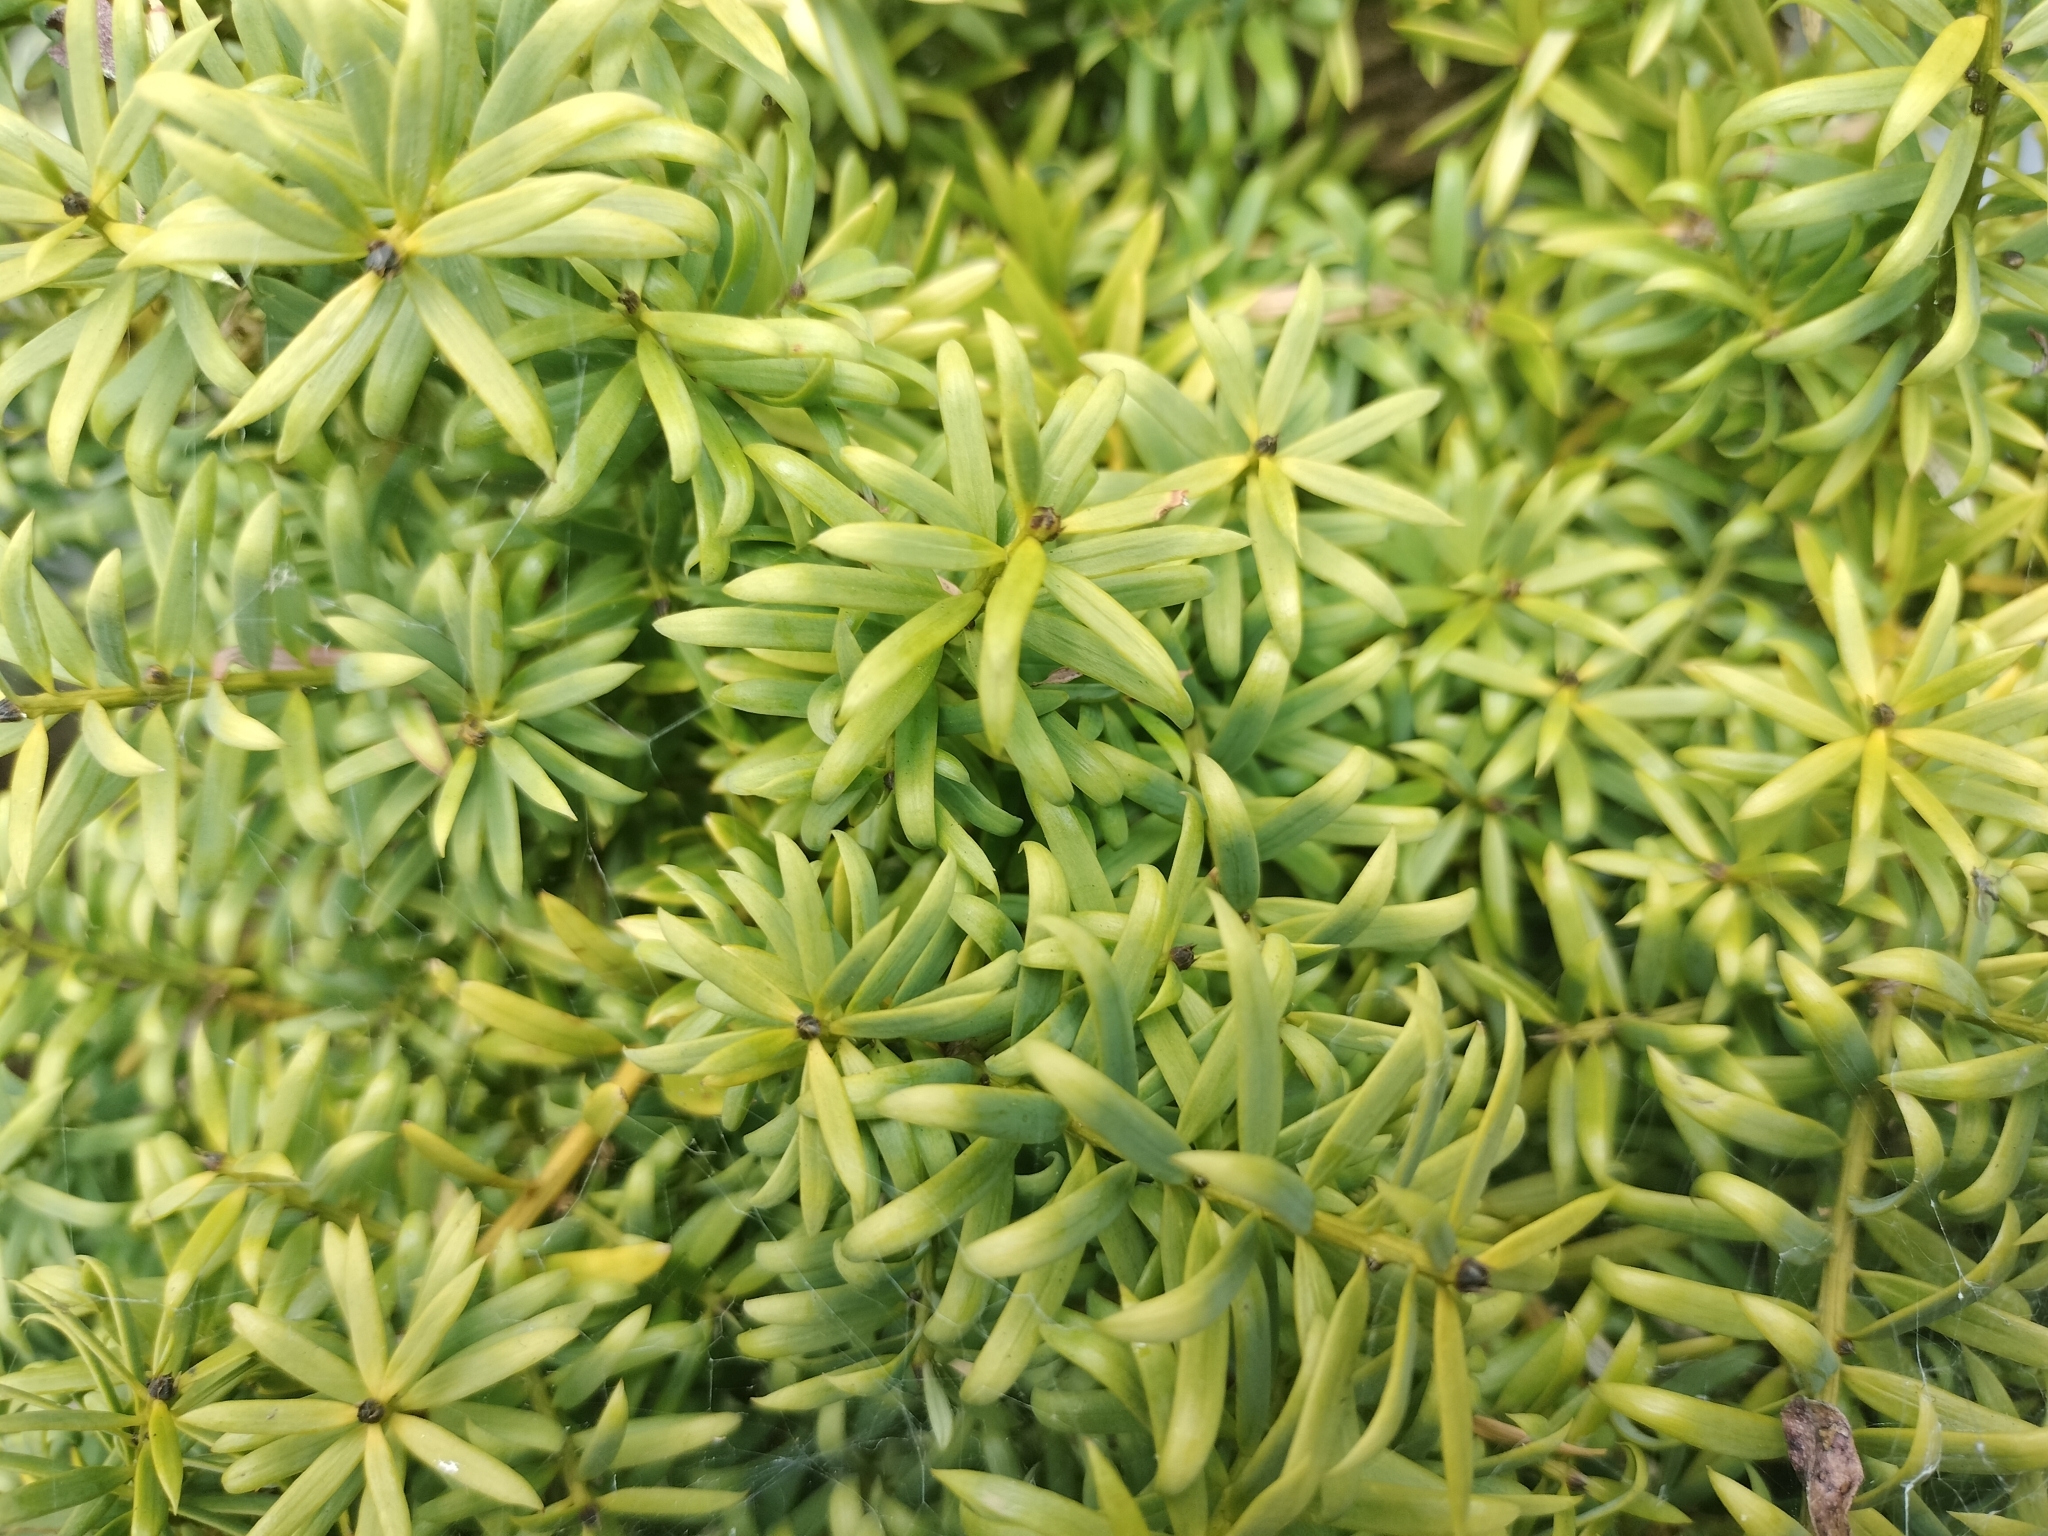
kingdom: Plantae
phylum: Tracheophyta
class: Pinopsida
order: Pinales
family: Podocarpaceae
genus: Podocarpus
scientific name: Podocarpus totara
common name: Totara
